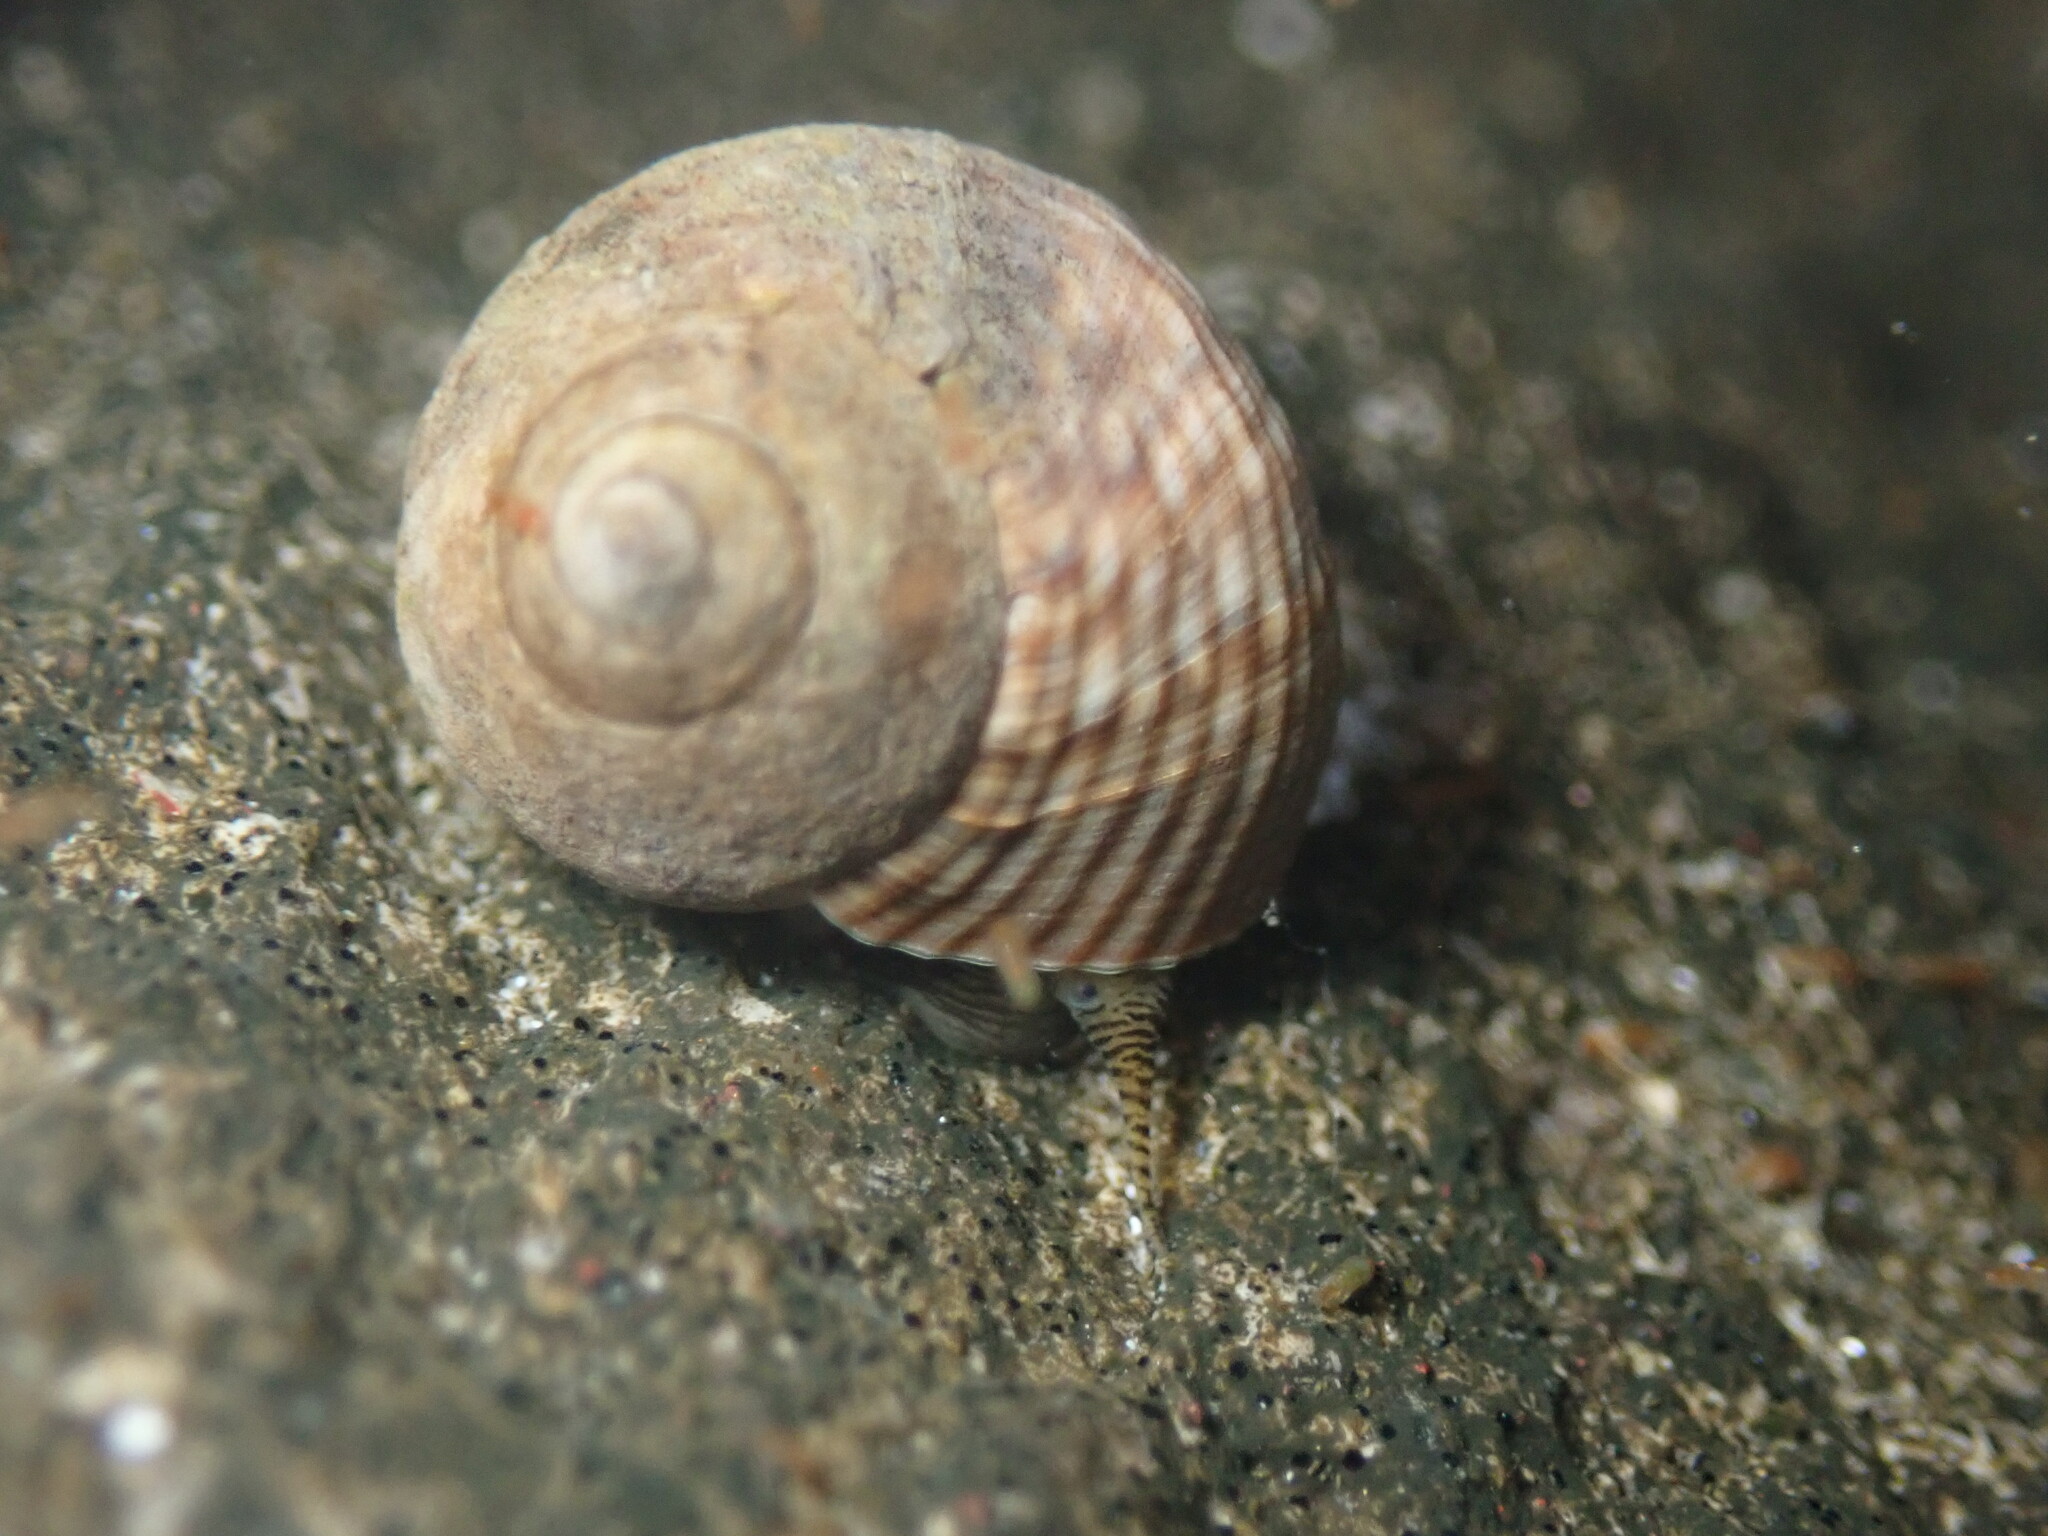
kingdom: Animalia
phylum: Mollusca
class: Gastropoda
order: Littorinimorpha
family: Littorinidae
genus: Tectarius
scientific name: Tectarius striatus
